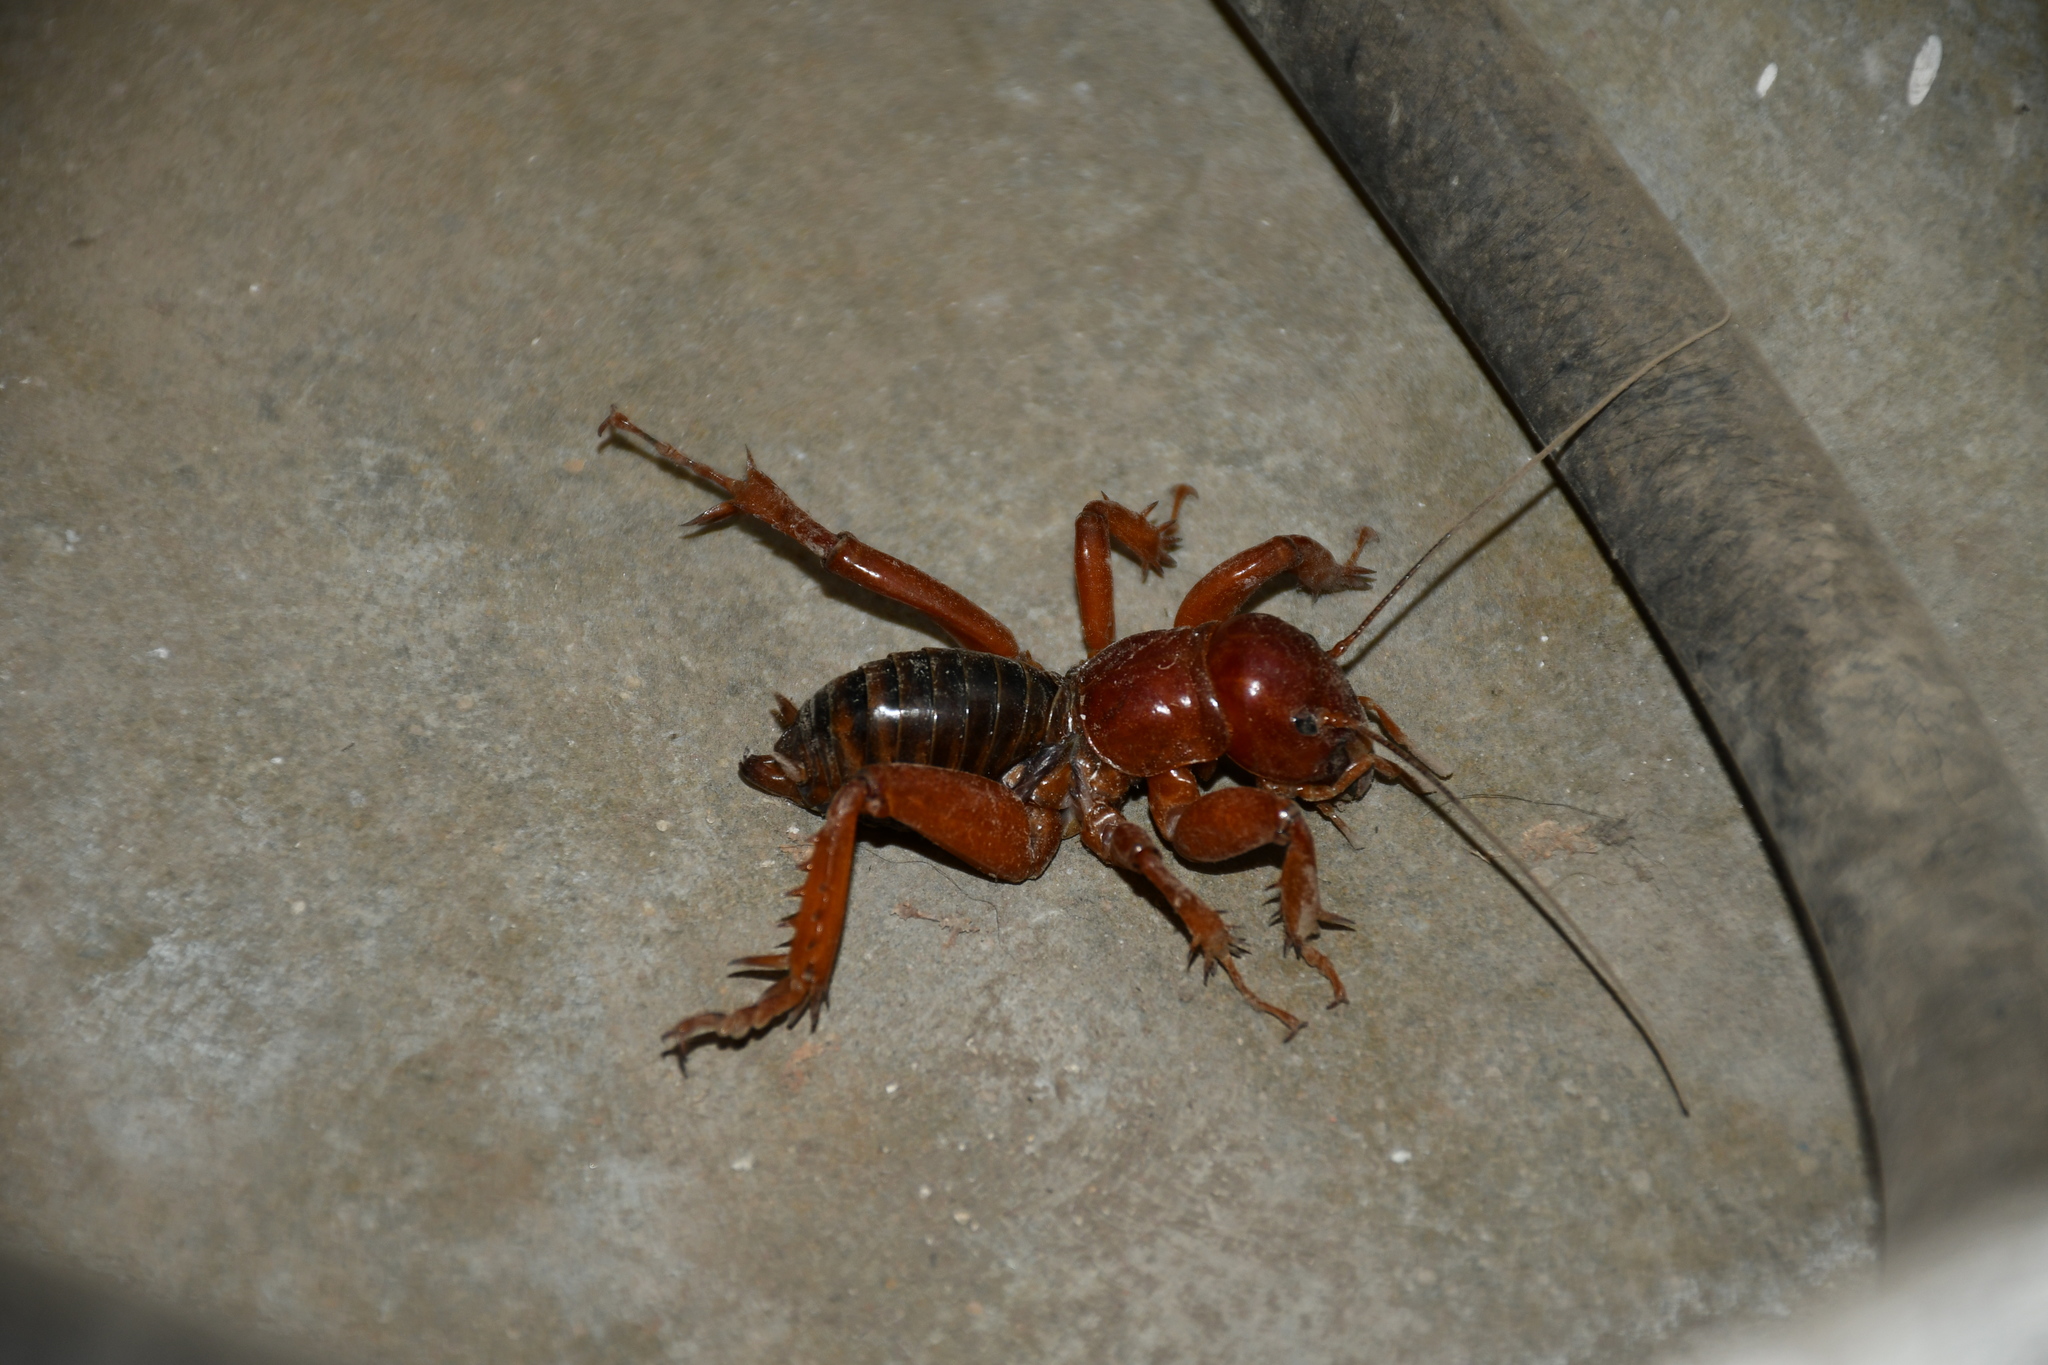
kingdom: Animalia
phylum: Arthropoda
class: Insecta
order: Orthoptera
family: Stenopelmatidae
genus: Stenopelmatus
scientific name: Stenopelmatus talpa
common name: Mole jerusalem cricket
